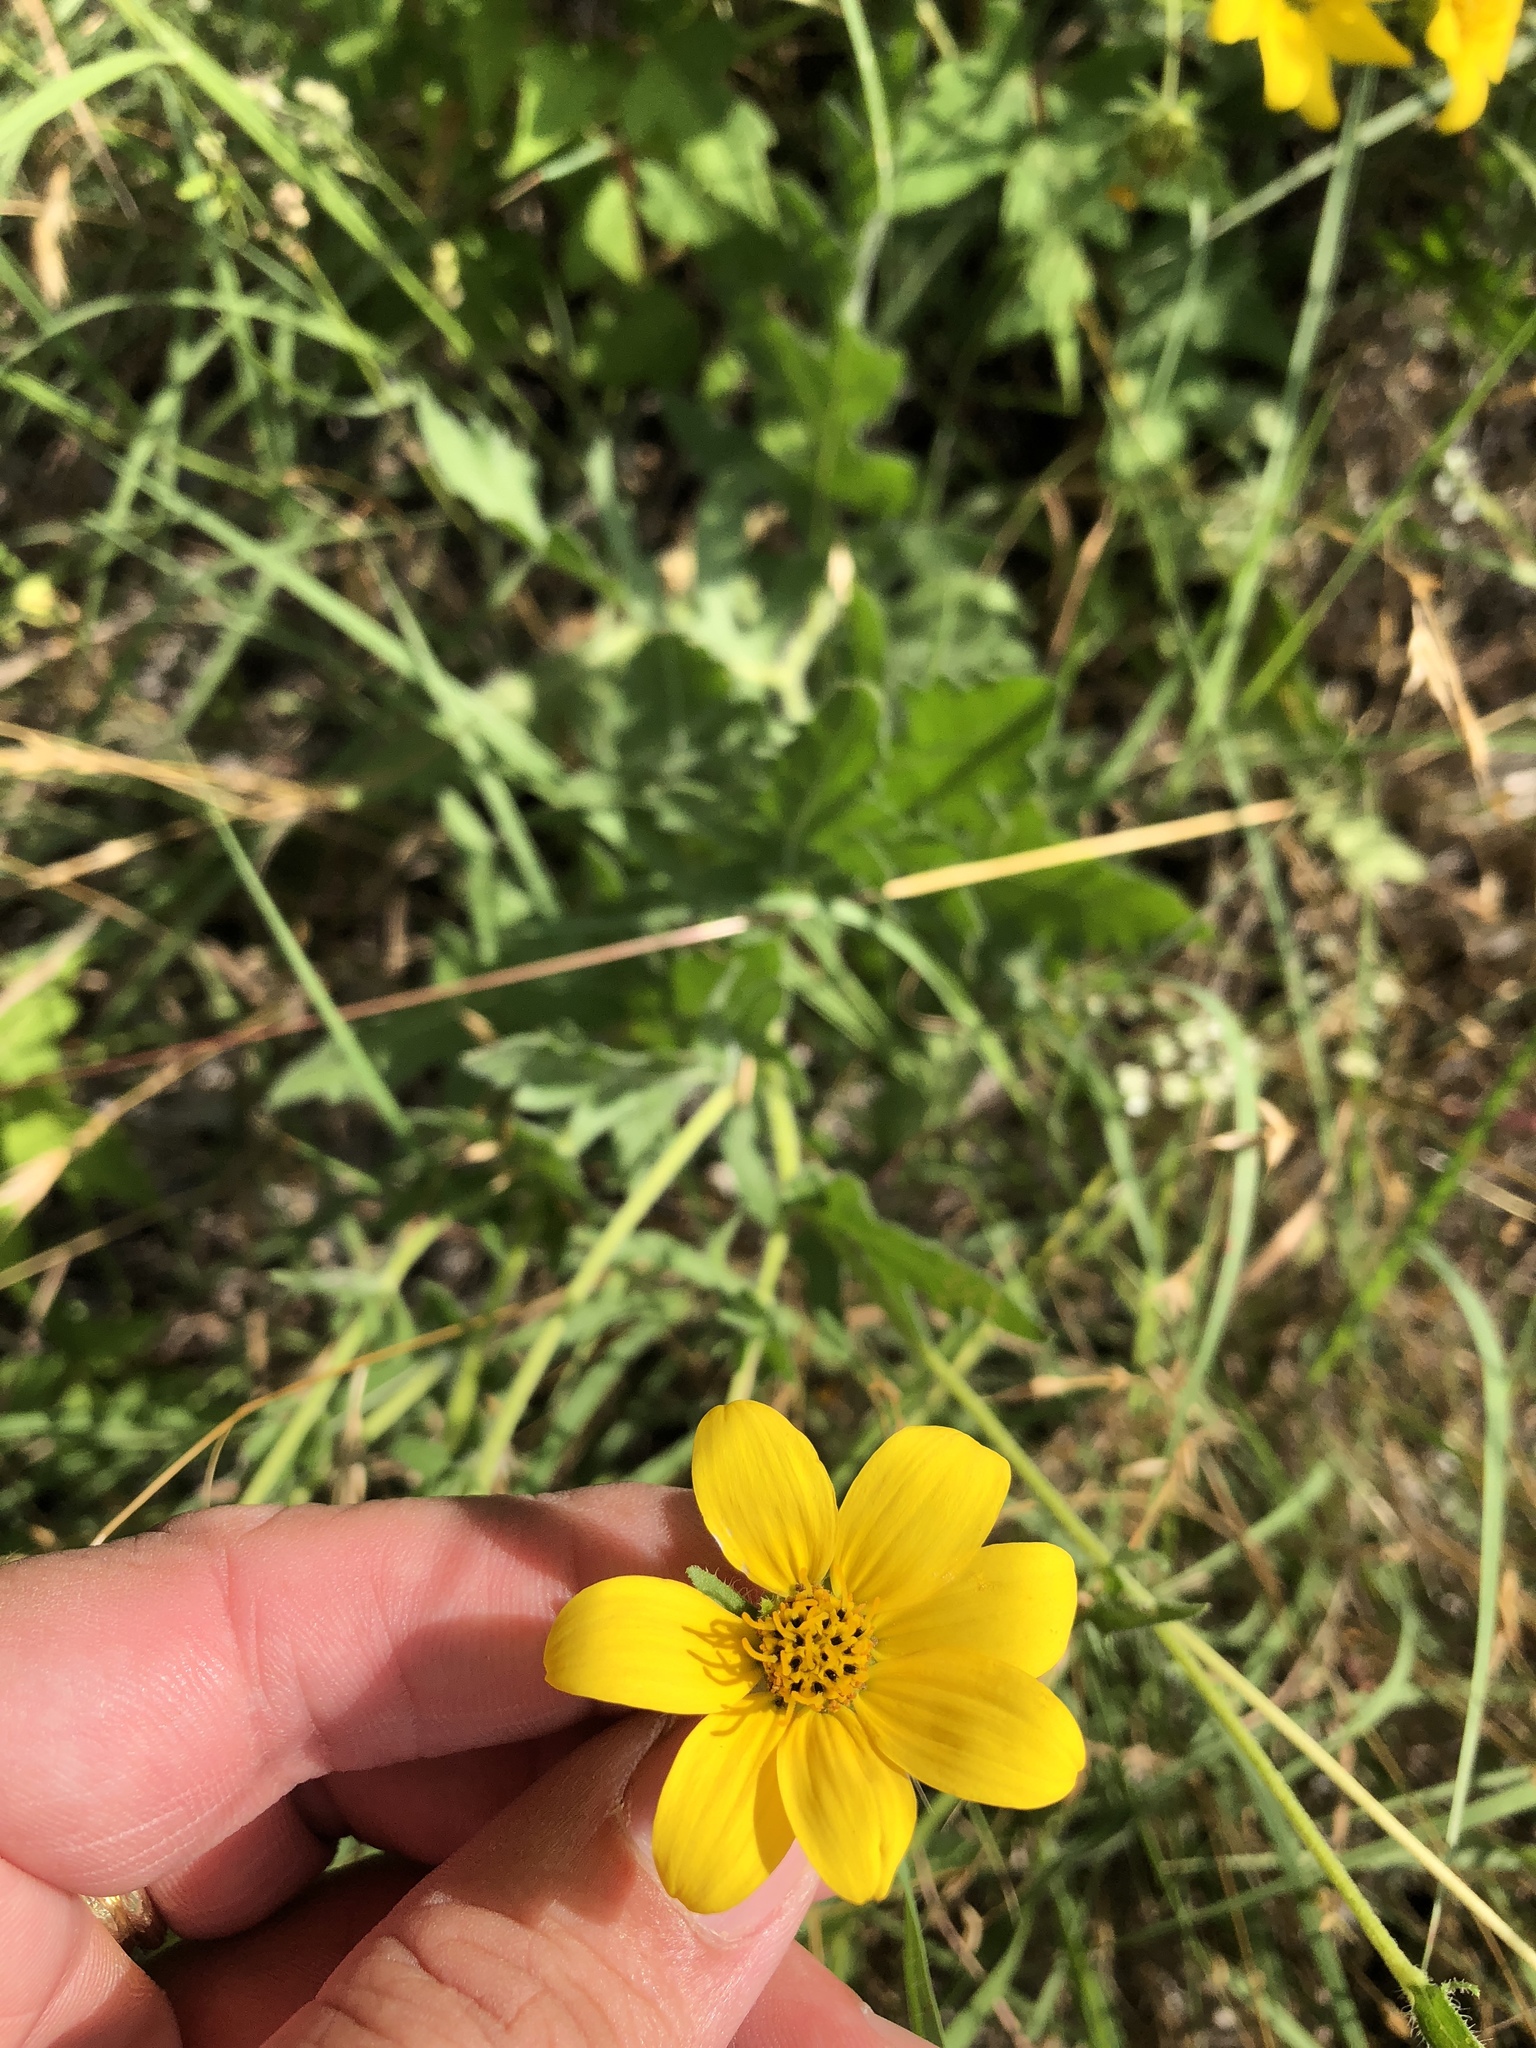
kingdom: Plantae
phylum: Tracheophyta
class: Magnoliopsida
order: Asterales
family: Asteraceae
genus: Engelmannia
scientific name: Engelmannia peristenia
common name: Engelmann's daisy
